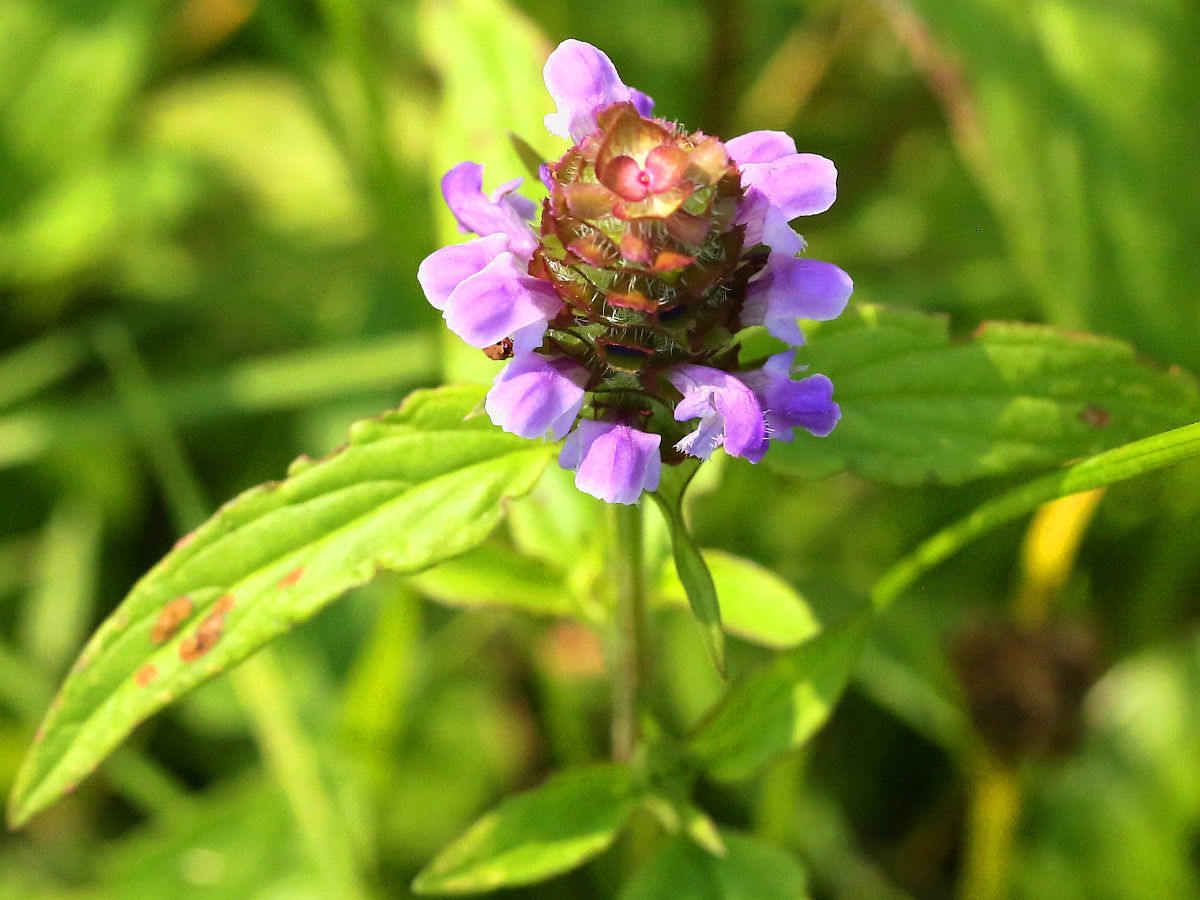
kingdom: Plantae
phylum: Tracheophyta
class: Magnoliopsida
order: Lamiales
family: Lamiaceae
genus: Prunella
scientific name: Prunella vulgaris
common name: Heal-all
